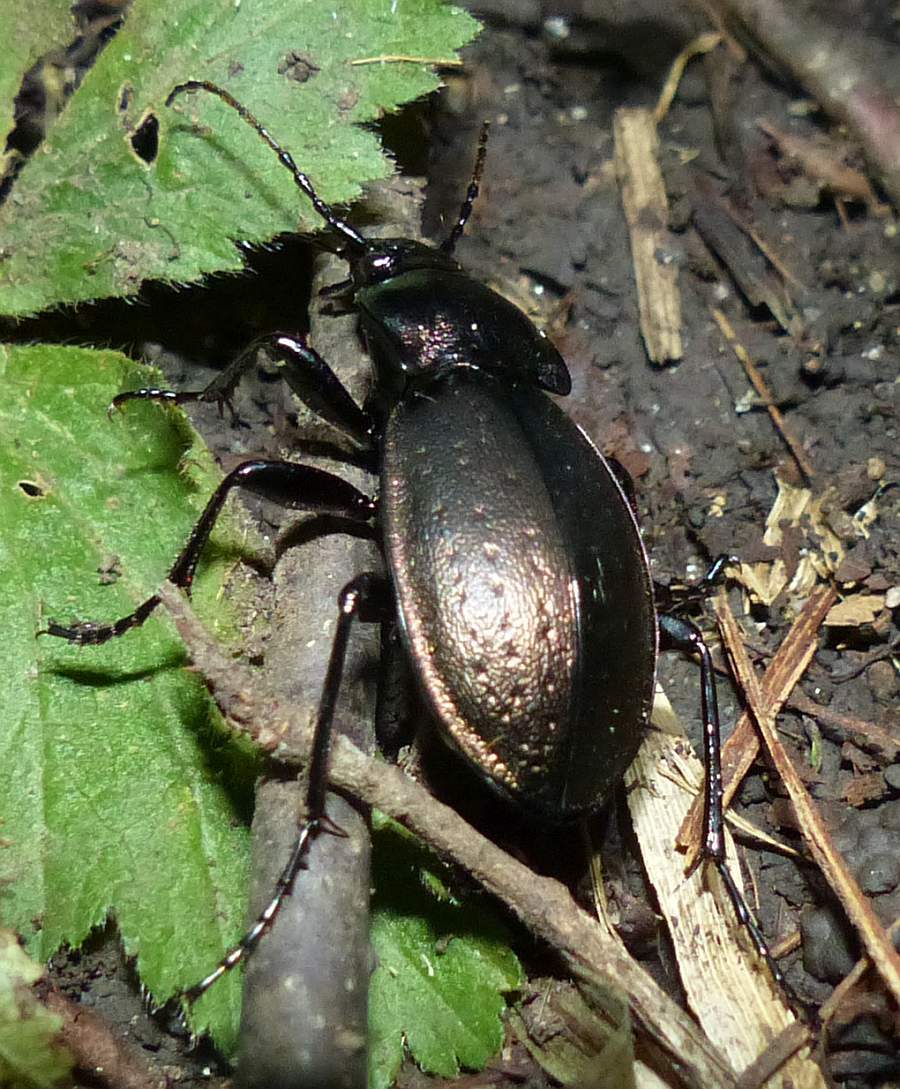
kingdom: Animalia
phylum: Arthropoda
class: Insecta
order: Coleoptera
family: Carabidae
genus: Carabus
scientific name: Carabus nemoralis
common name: European ground beetle
